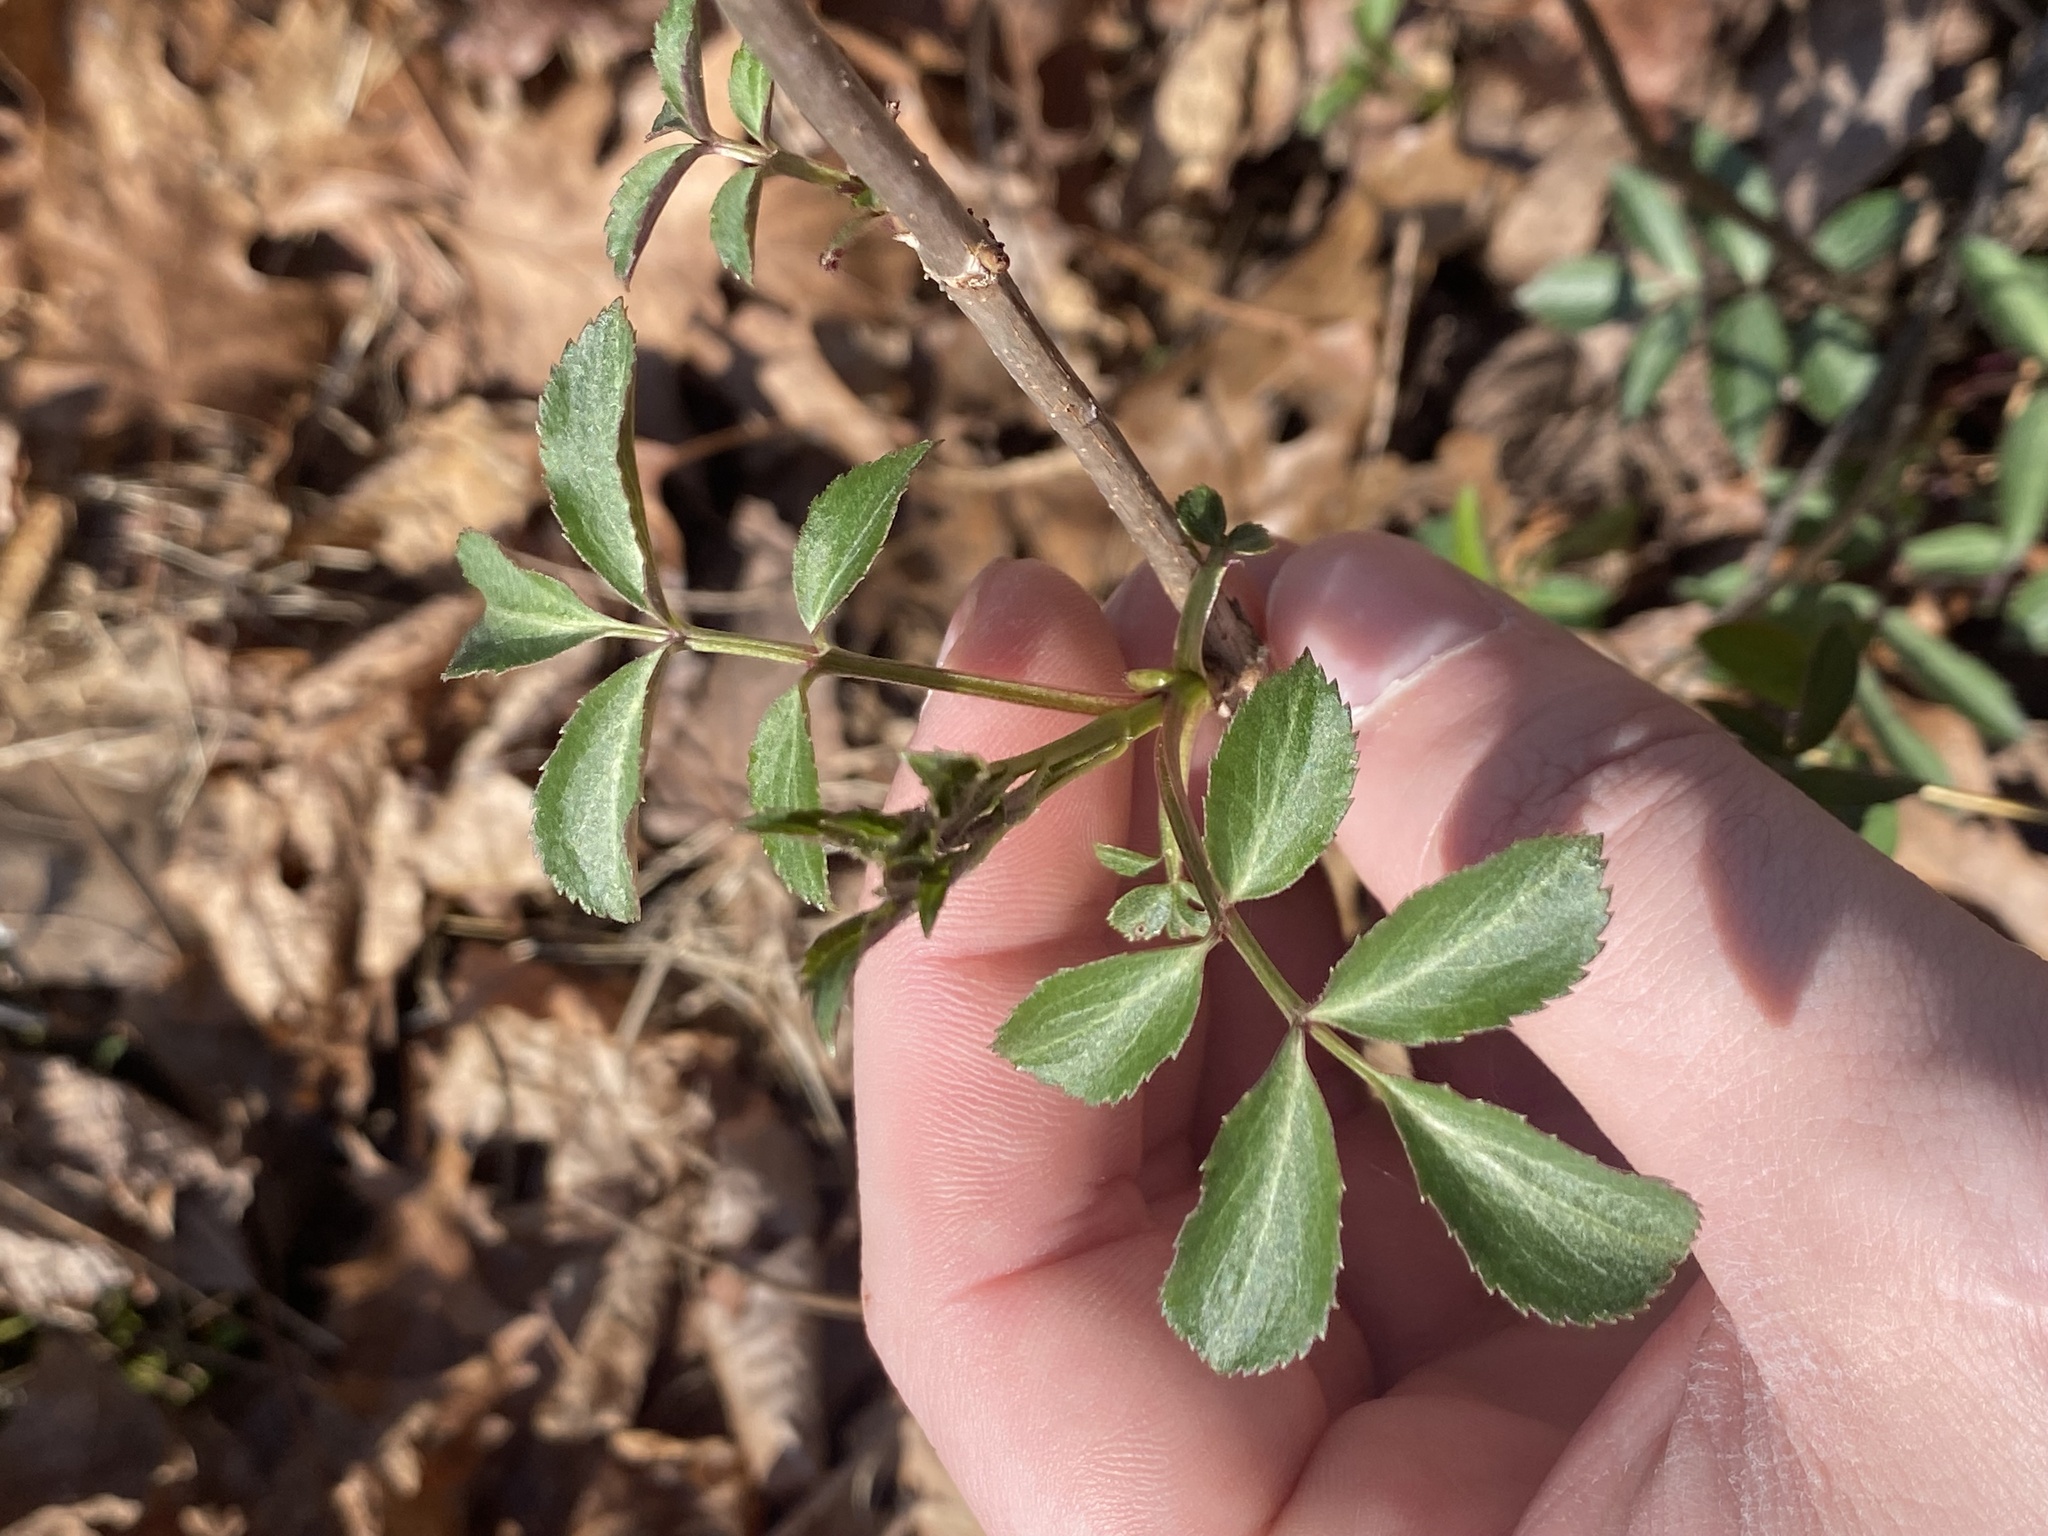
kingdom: Plantae
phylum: Tracheophyta
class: Magnoliopsida
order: Dipsacales
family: Viburnaceae
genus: Sambucus
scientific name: Sambucus canadensis
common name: American elder
